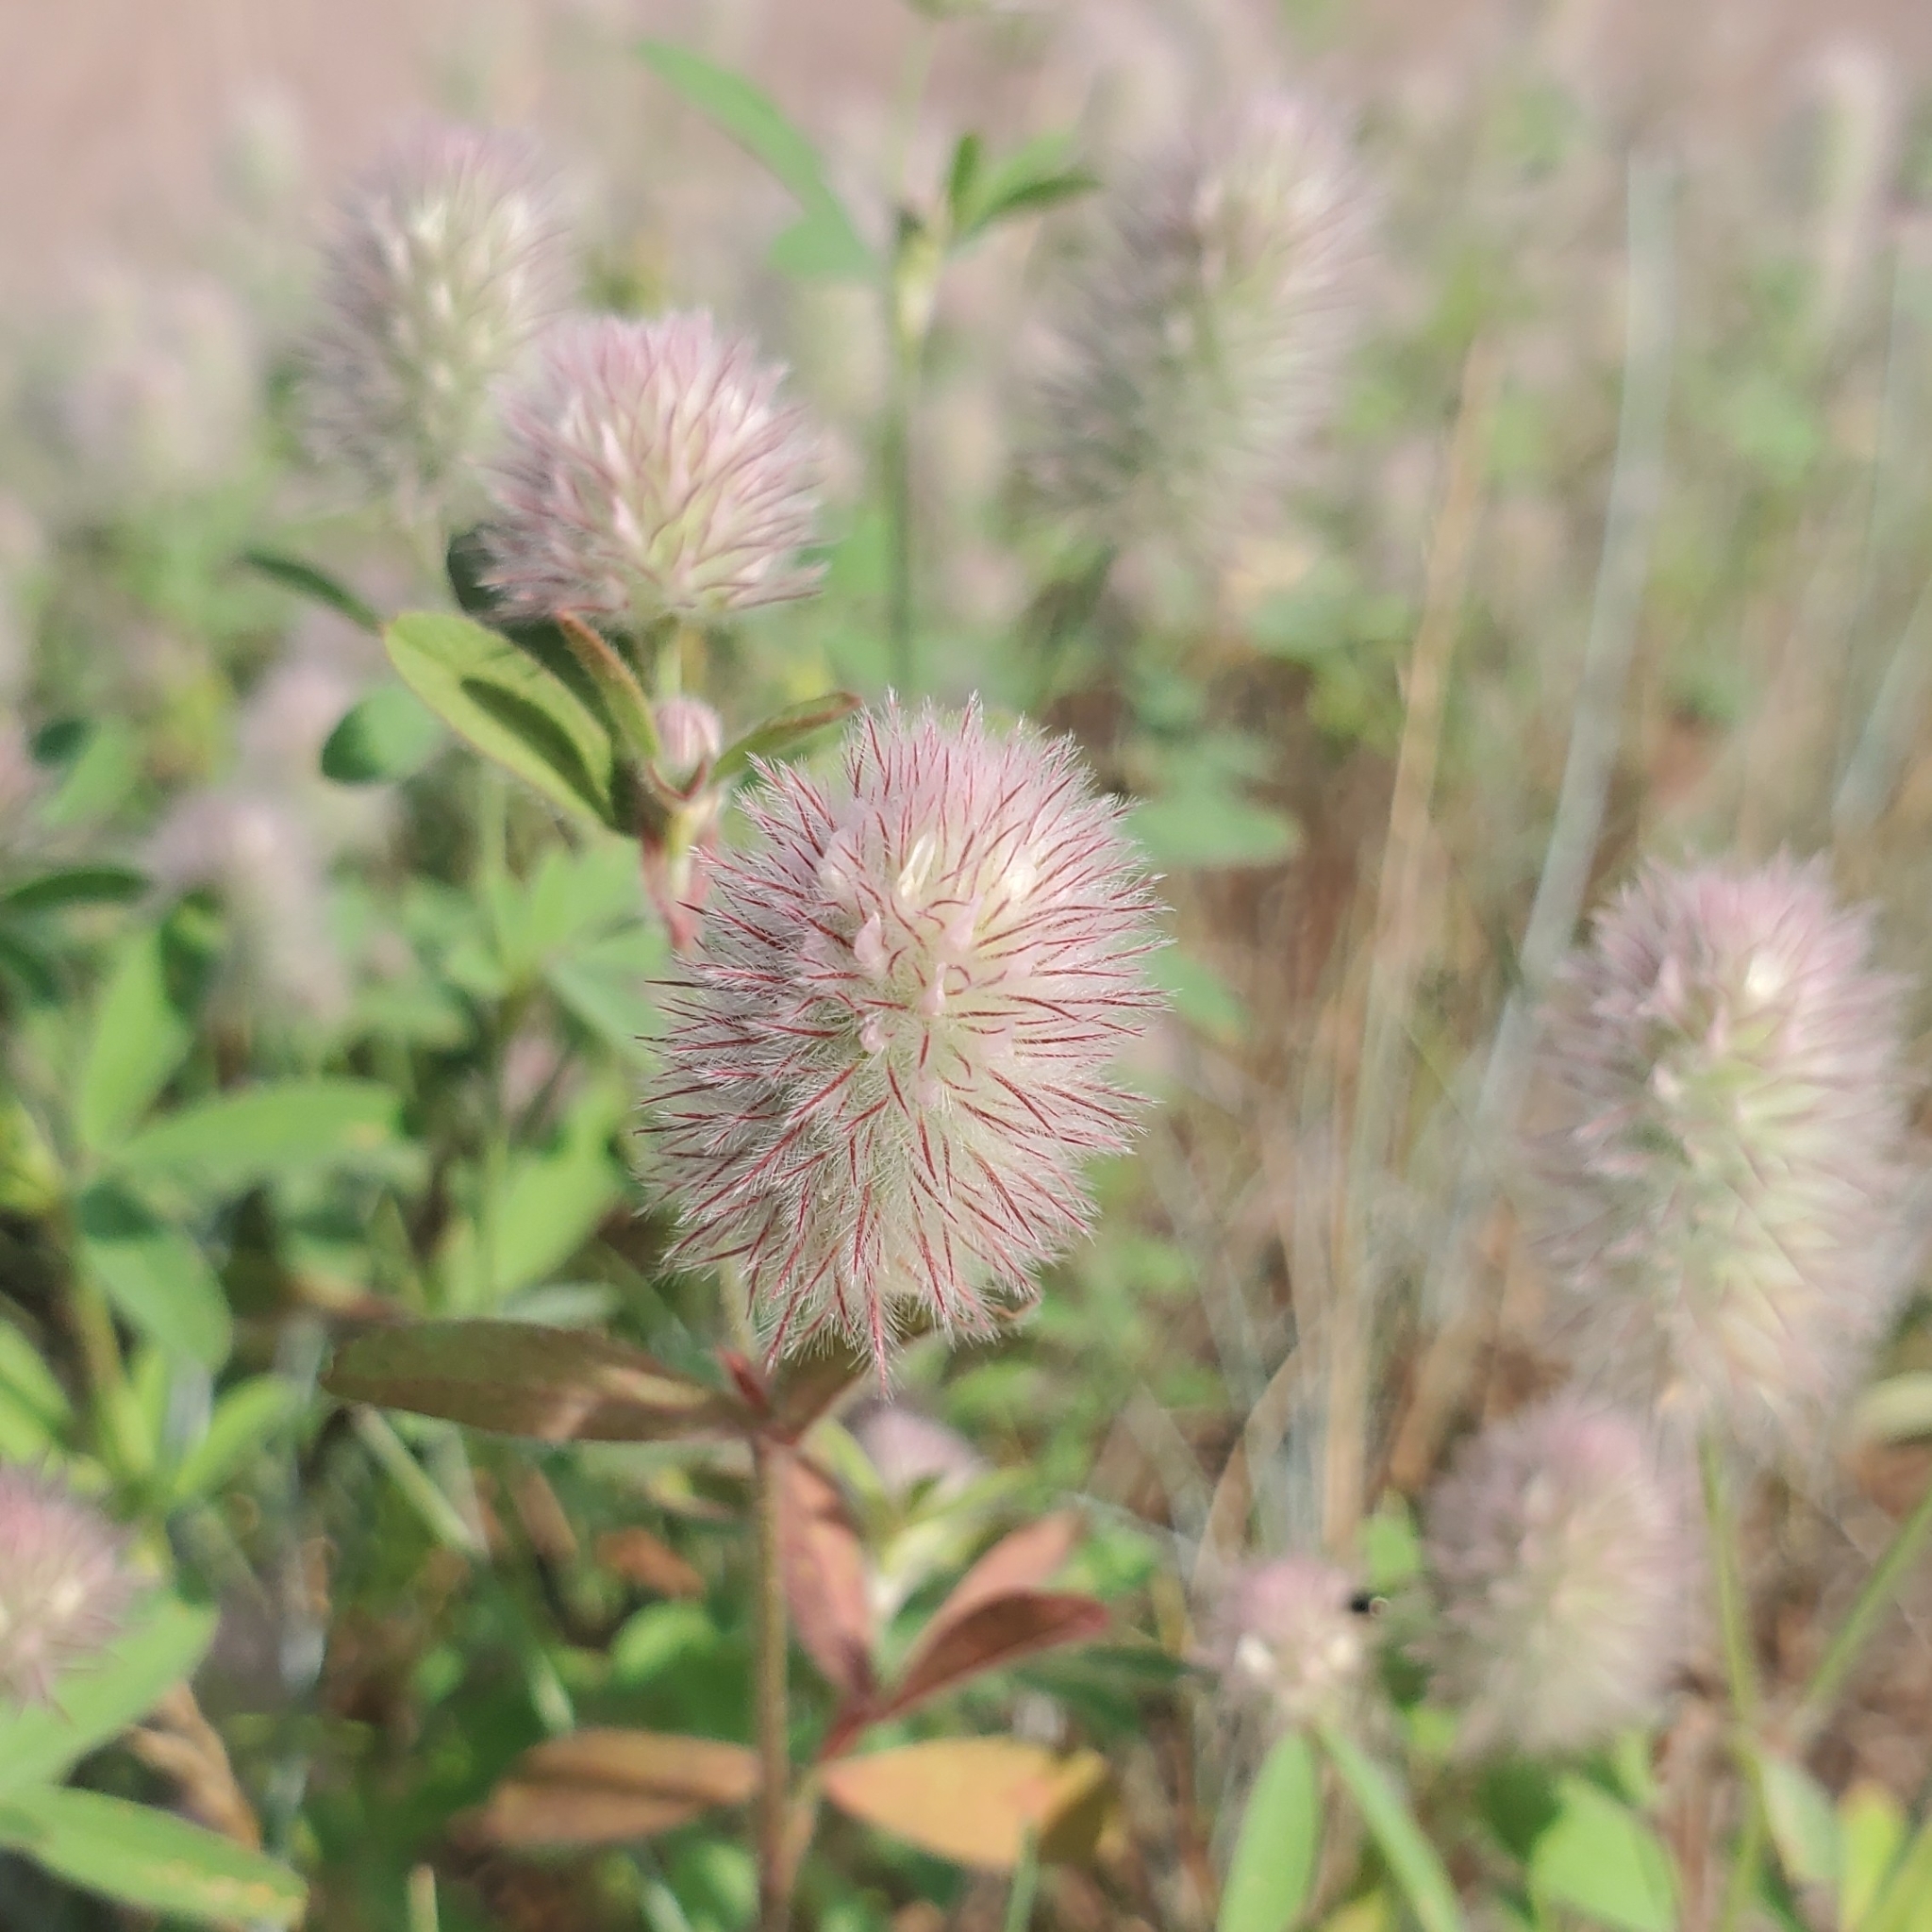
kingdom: Plantae
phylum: Tracheophyta
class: Magnoliopsida
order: Fabales
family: Fabaceae
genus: Trifolium
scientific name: Trifolium arvense
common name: Hare's-foot clover
